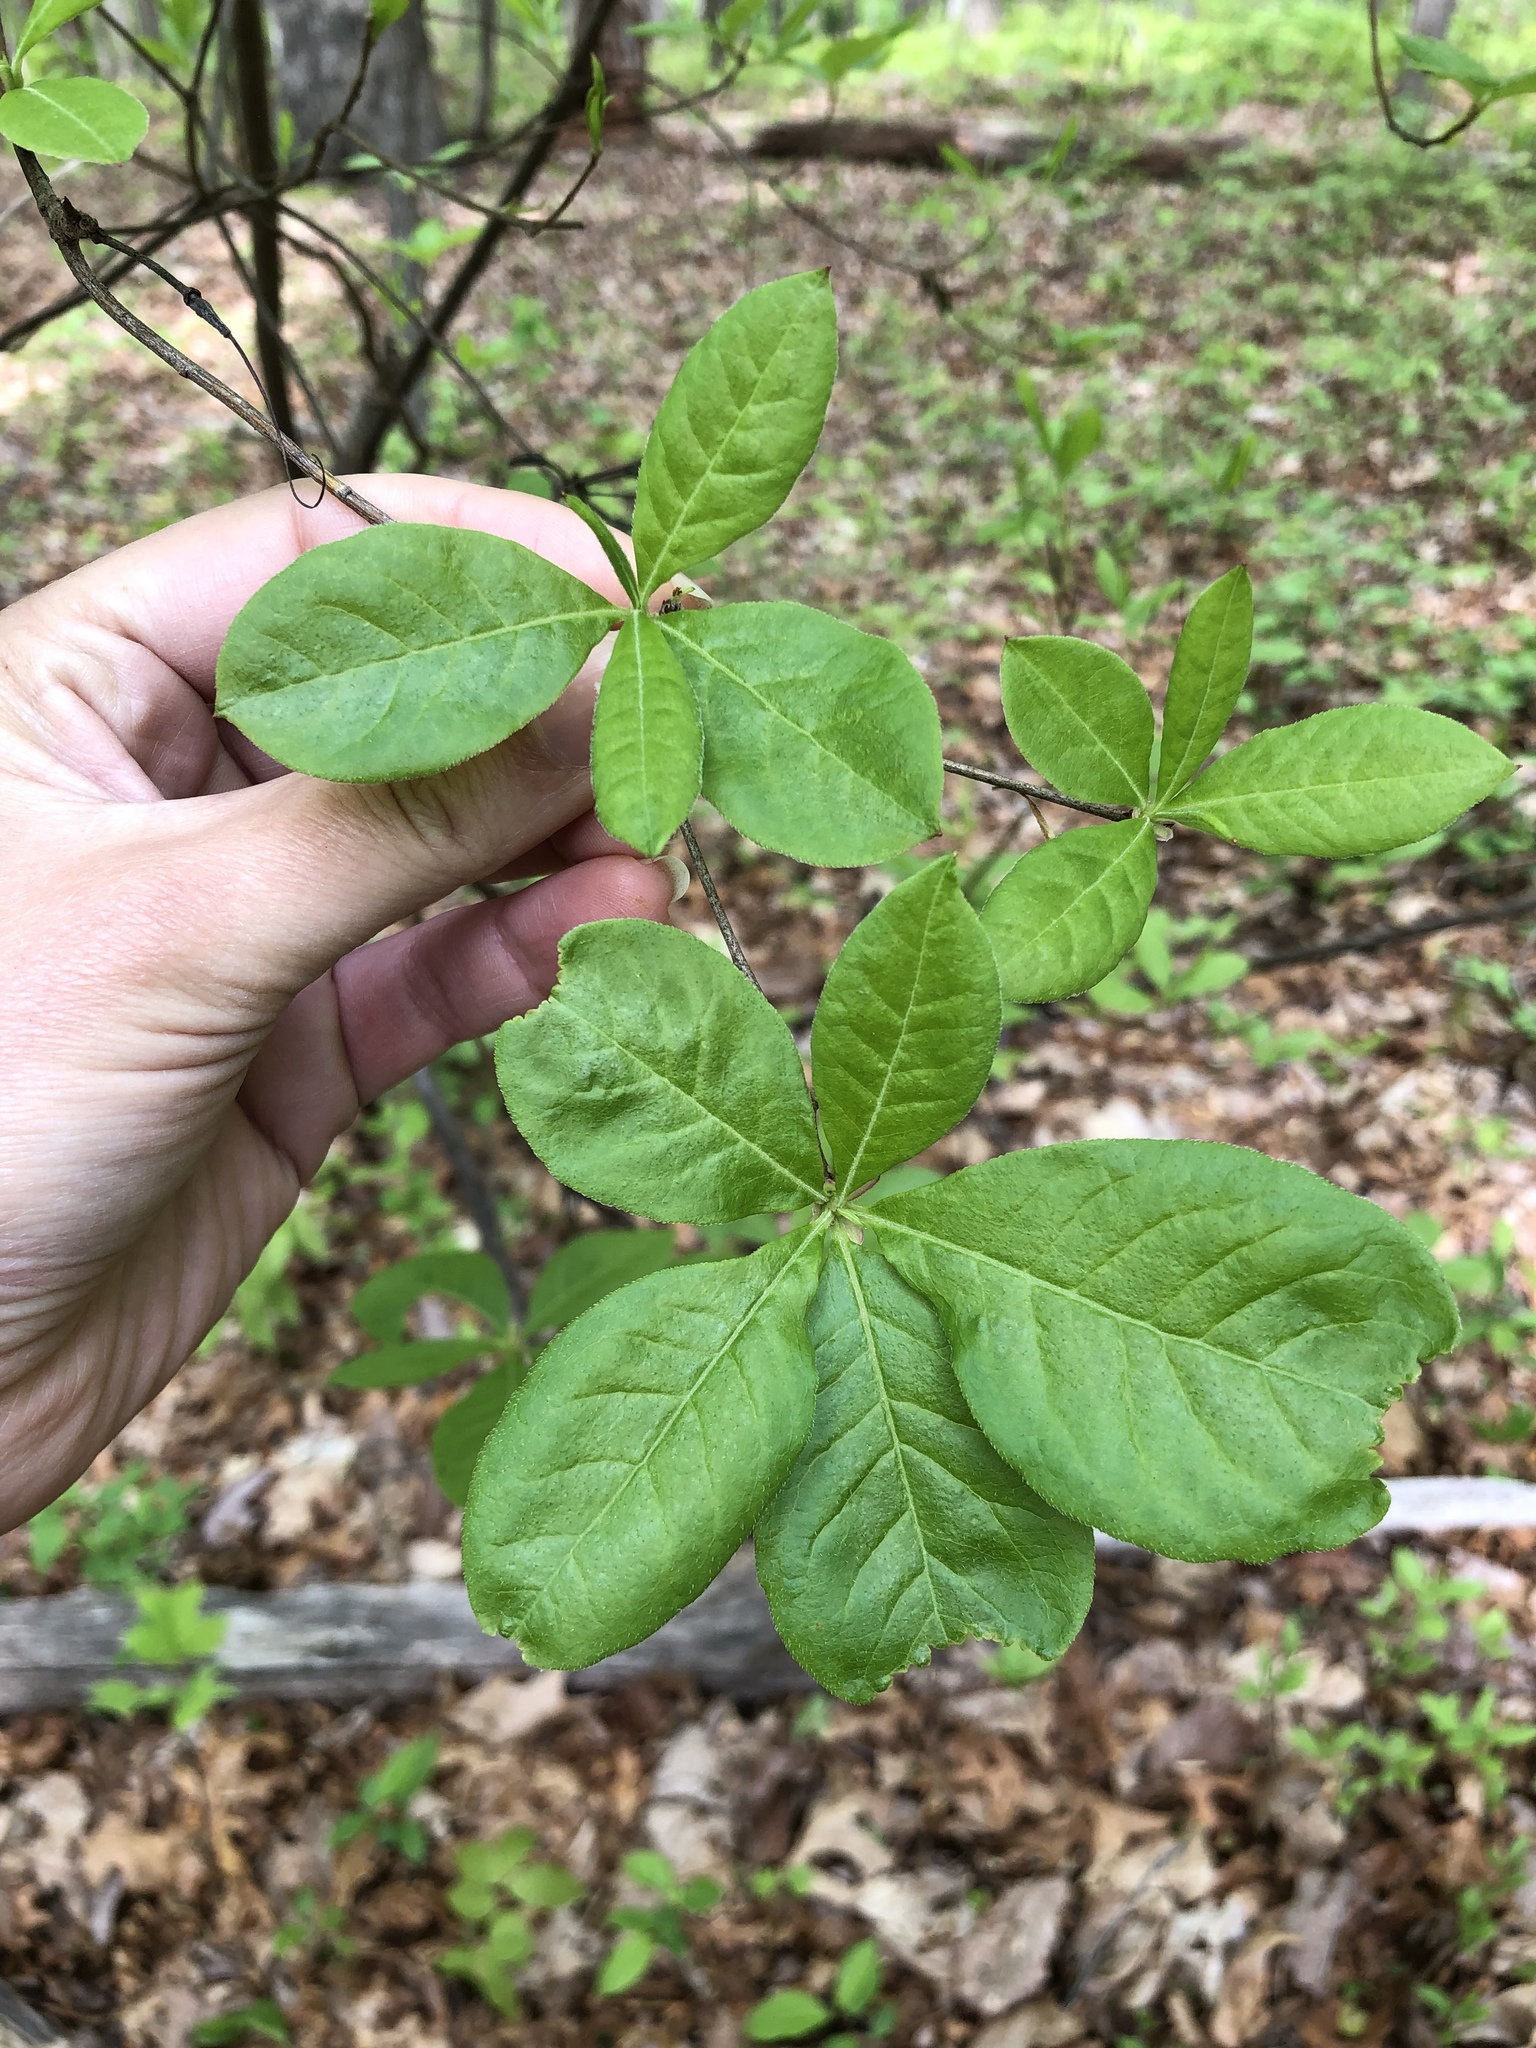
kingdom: Plantae
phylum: Tracheophyta
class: Magnoliopsida
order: Ericales
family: Ericaceae
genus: Rhododendron
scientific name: Rhododendron periclymenoides
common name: Election-pink
